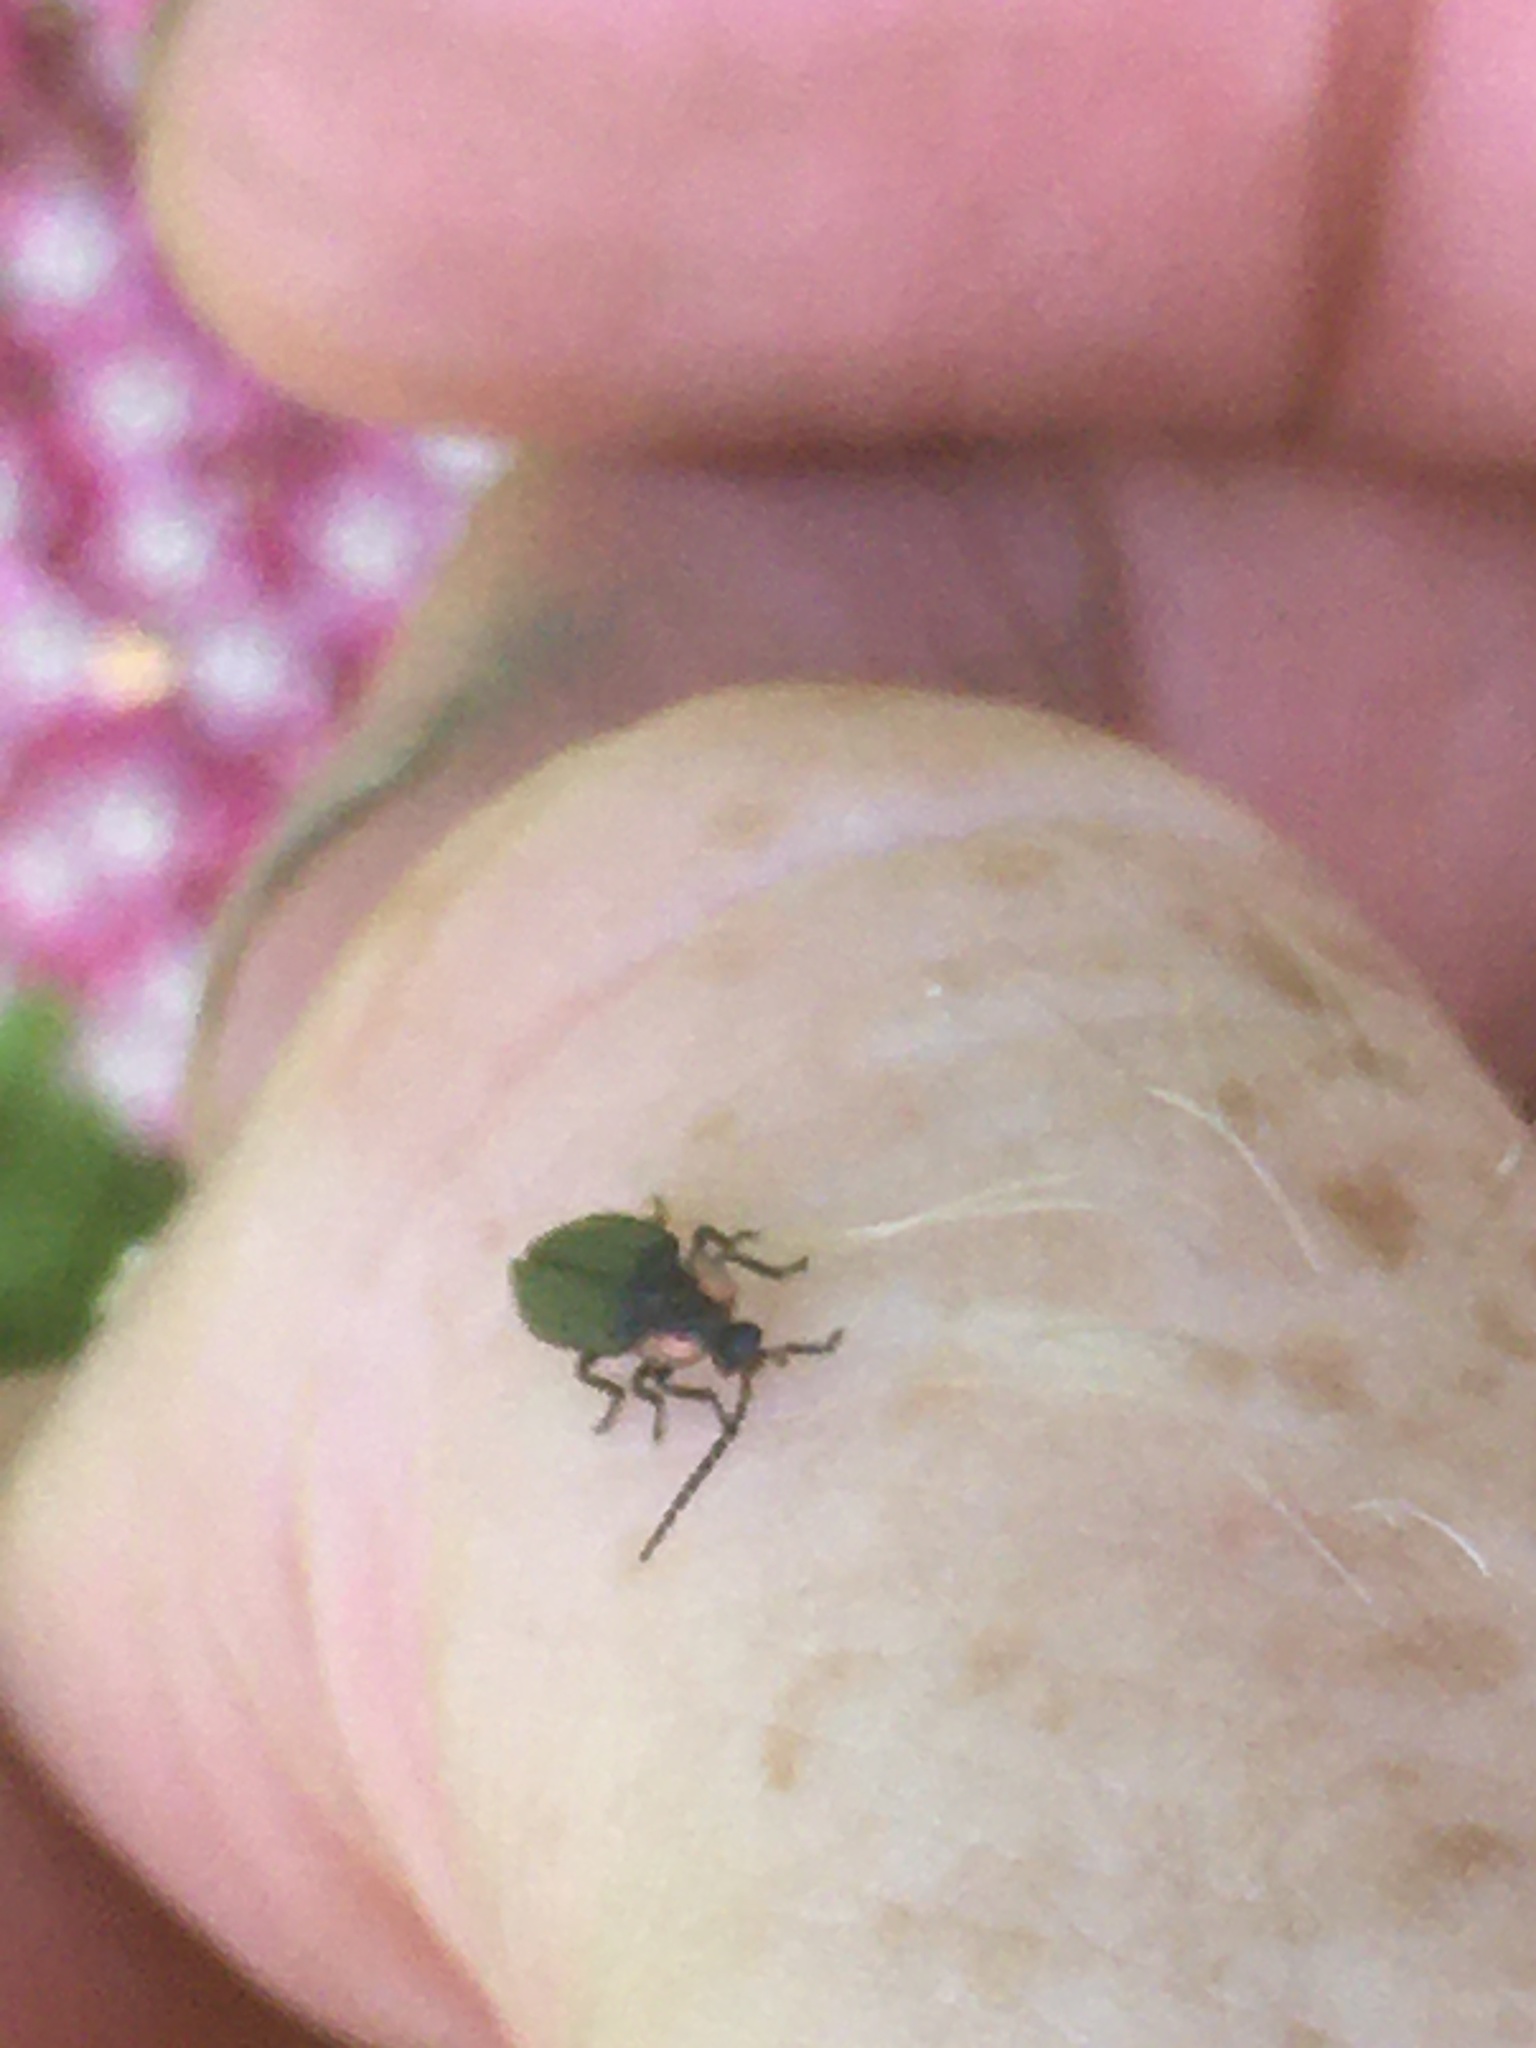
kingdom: Animalia
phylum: Arthropoda
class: Insecta
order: Coleoptera
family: Lampyridae
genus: Pyropyga
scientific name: Pyropyga
